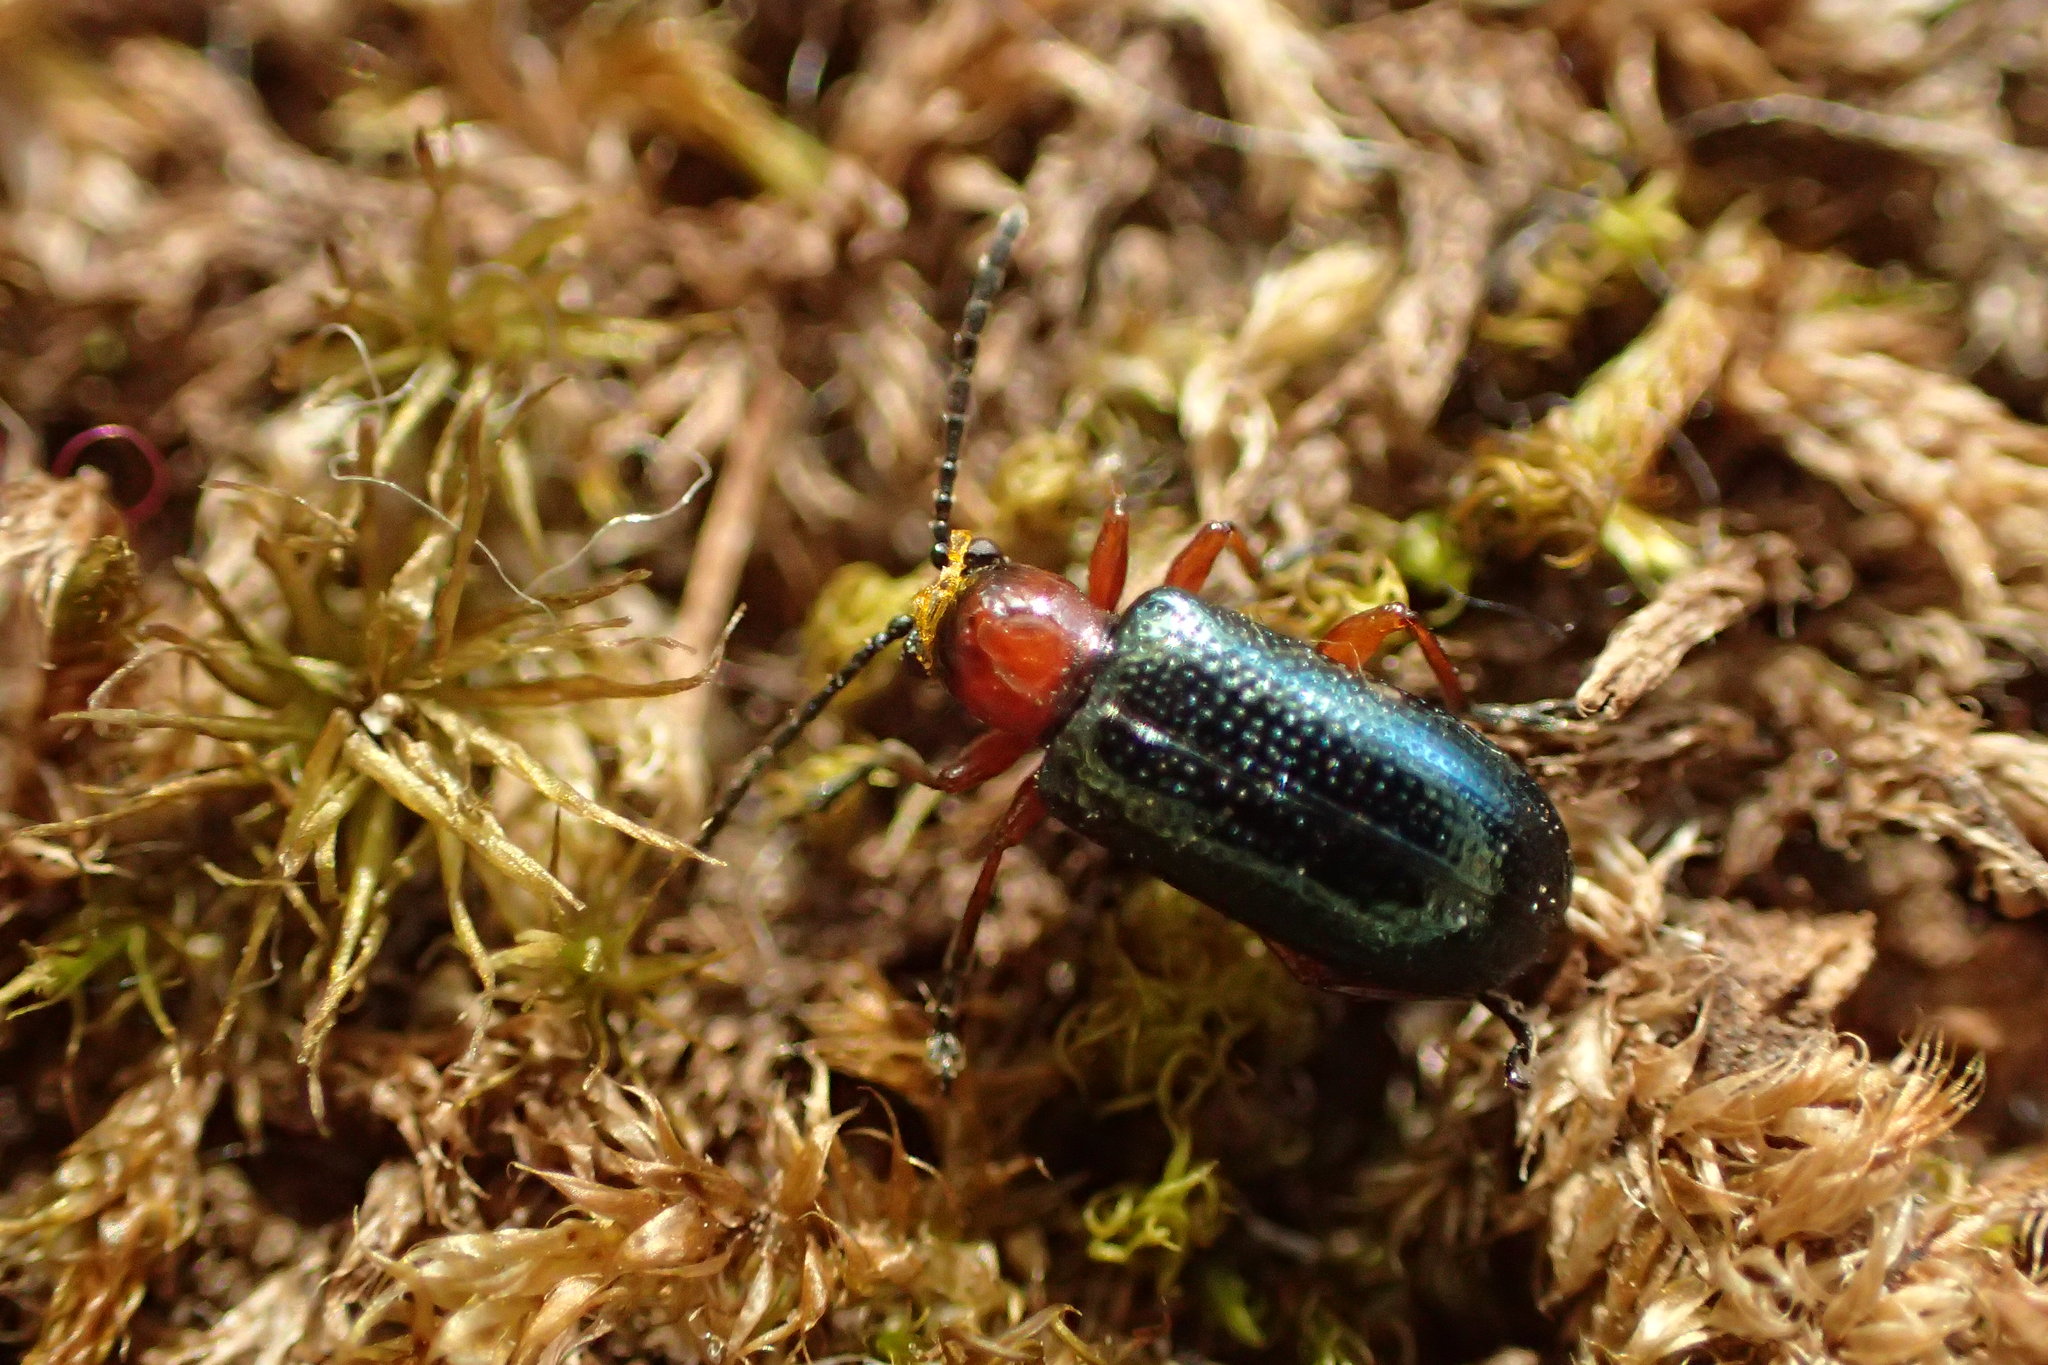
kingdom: Animalia
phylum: Arthropoda
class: Insecta
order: Coleoptera
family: Chrysomelidae
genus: Oulema
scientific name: Oulema
